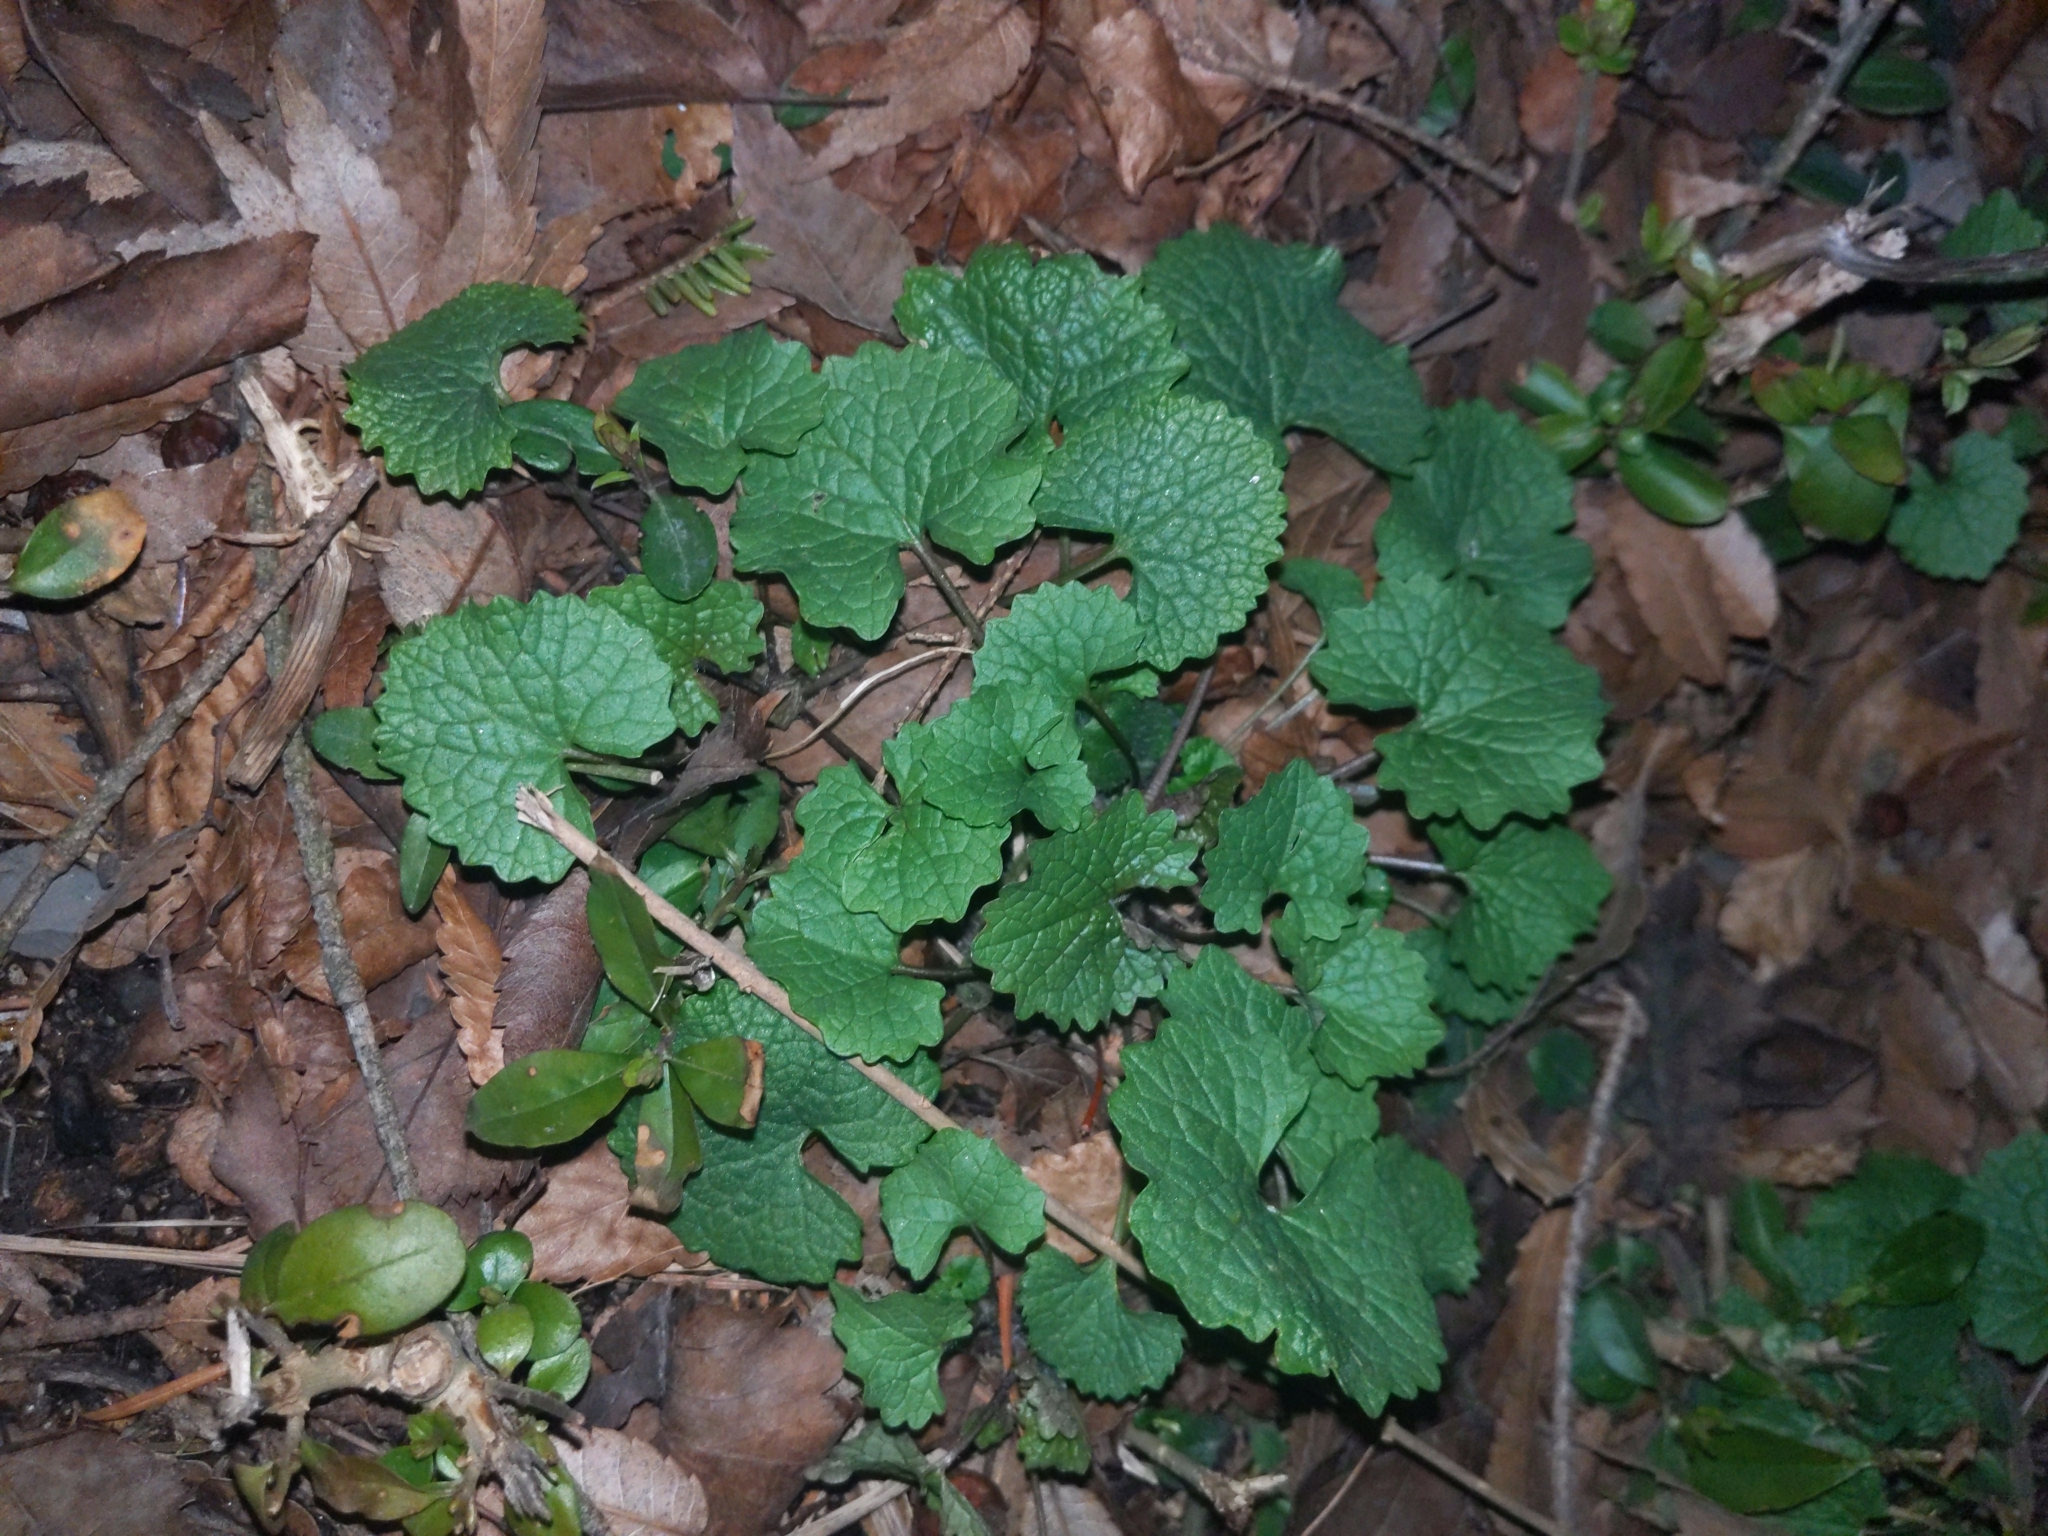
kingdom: Plantae
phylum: Tracheophyta
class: Magnoliopsida
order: Brassicales
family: Brassicaceae
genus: Alliaria
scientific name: Alliaria petiolata
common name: Garlic mustard
